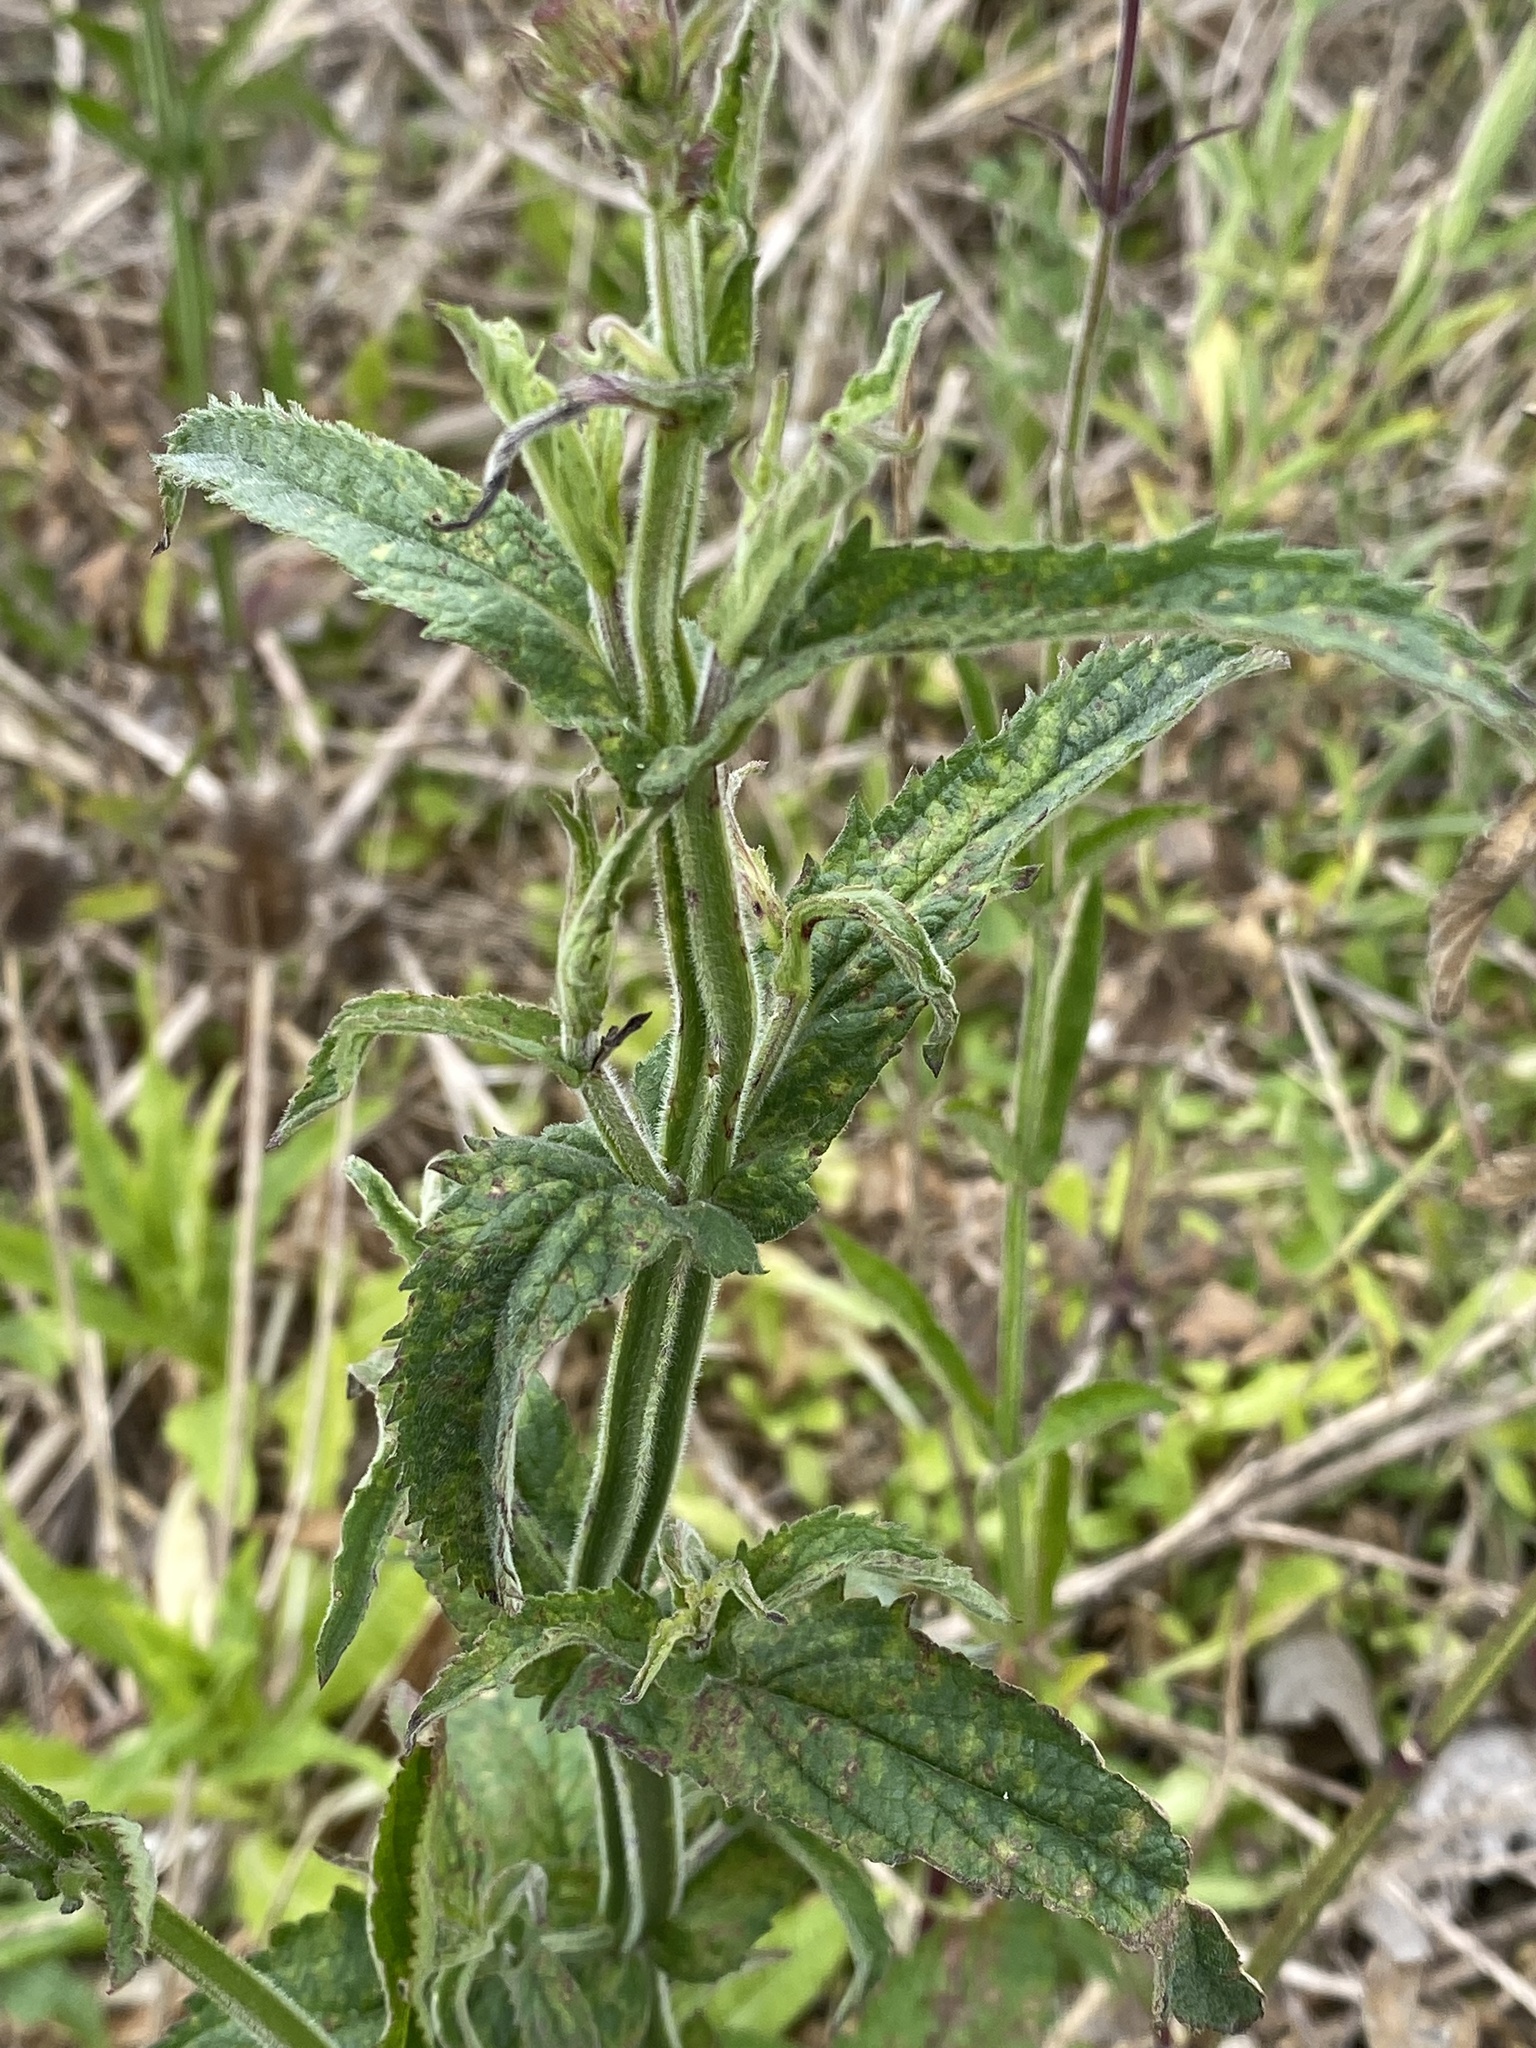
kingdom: Plantae
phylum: Tracheophyta
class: Magnoliopsida
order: Lamiales
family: Verbenaceae
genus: Verbena
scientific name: Verbena bonariensis
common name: Purpletop vervain
